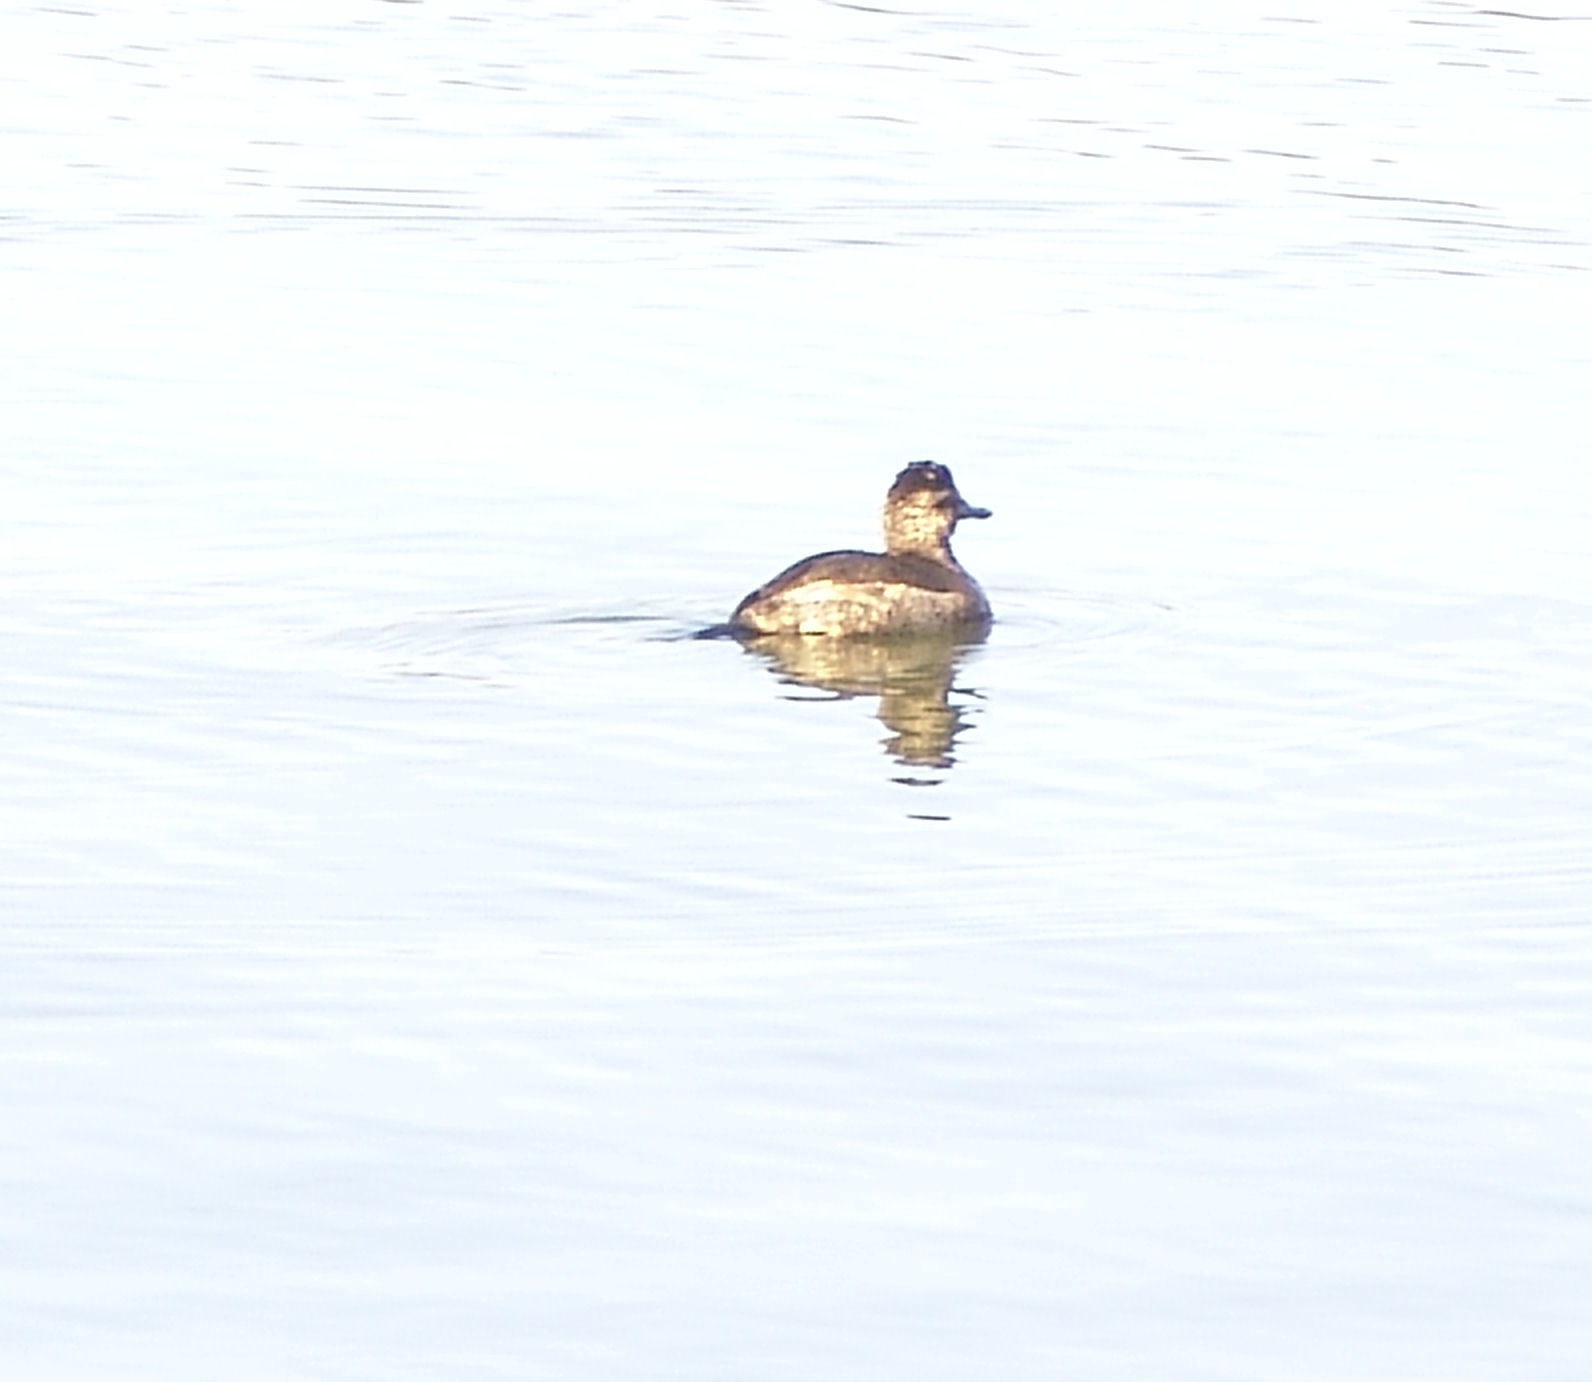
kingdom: Animalia
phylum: Chordata
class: Aves
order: Anseriformes
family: Anatidae
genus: Oxyura
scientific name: Oxyura jamaicensis
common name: Ruddy duck
